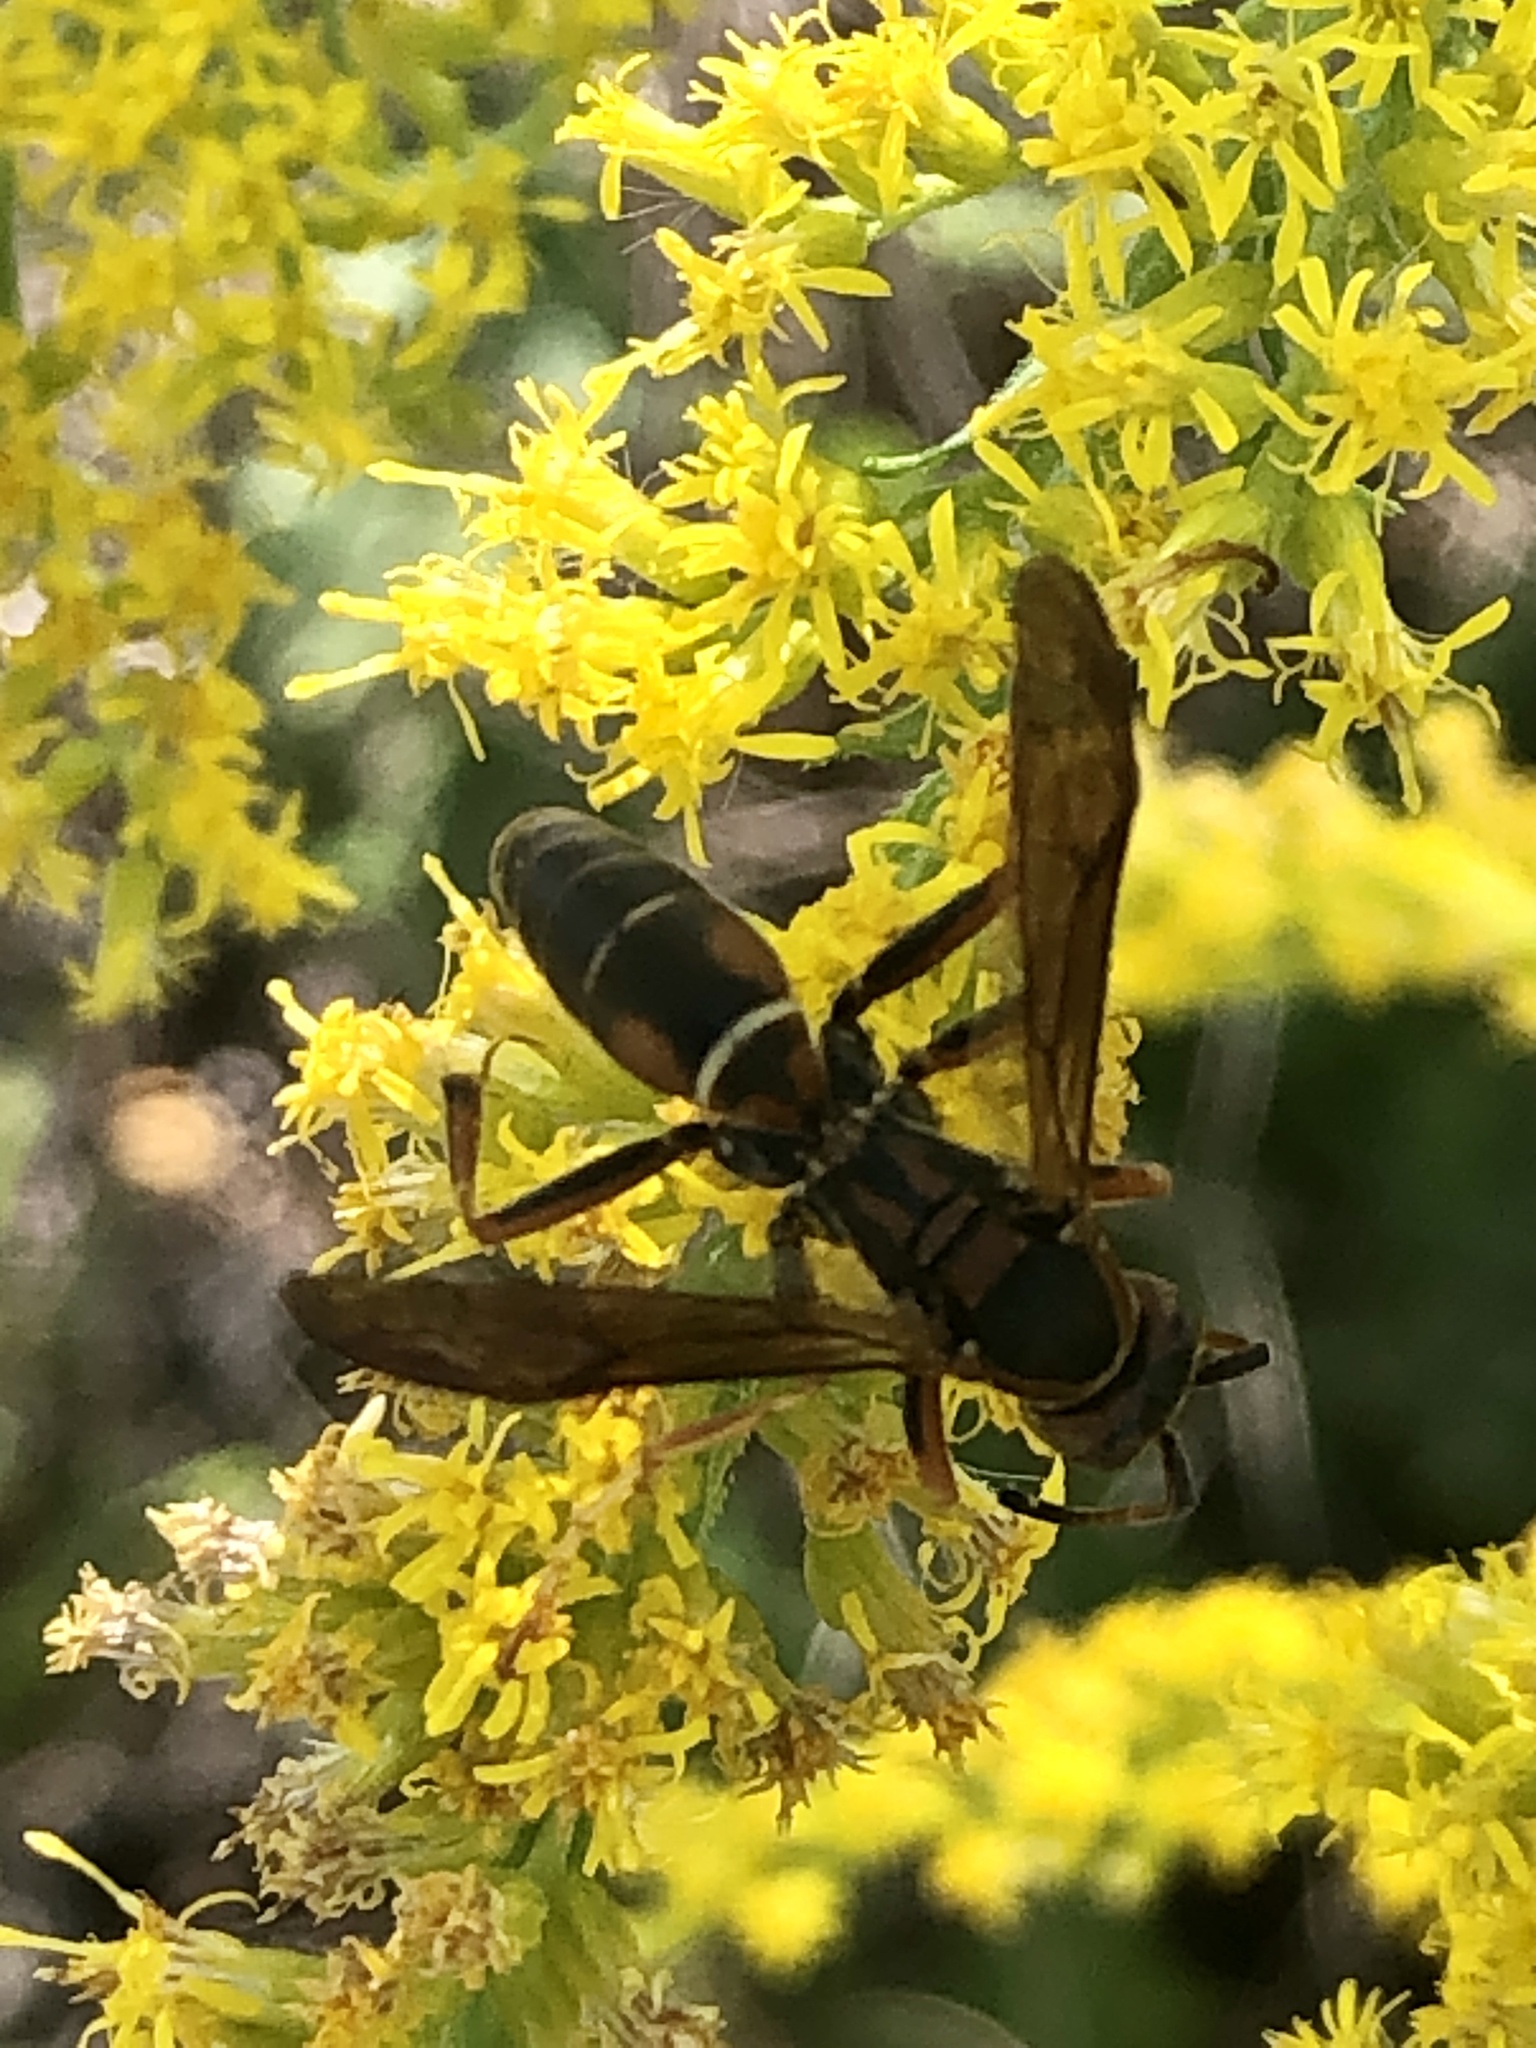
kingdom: Animalia
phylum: Arthropoda
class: Insecta
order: Hymenoptera
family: Eumenidae
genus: Polistes
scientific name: Polistes fuscatus
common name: Dark paper wasp
